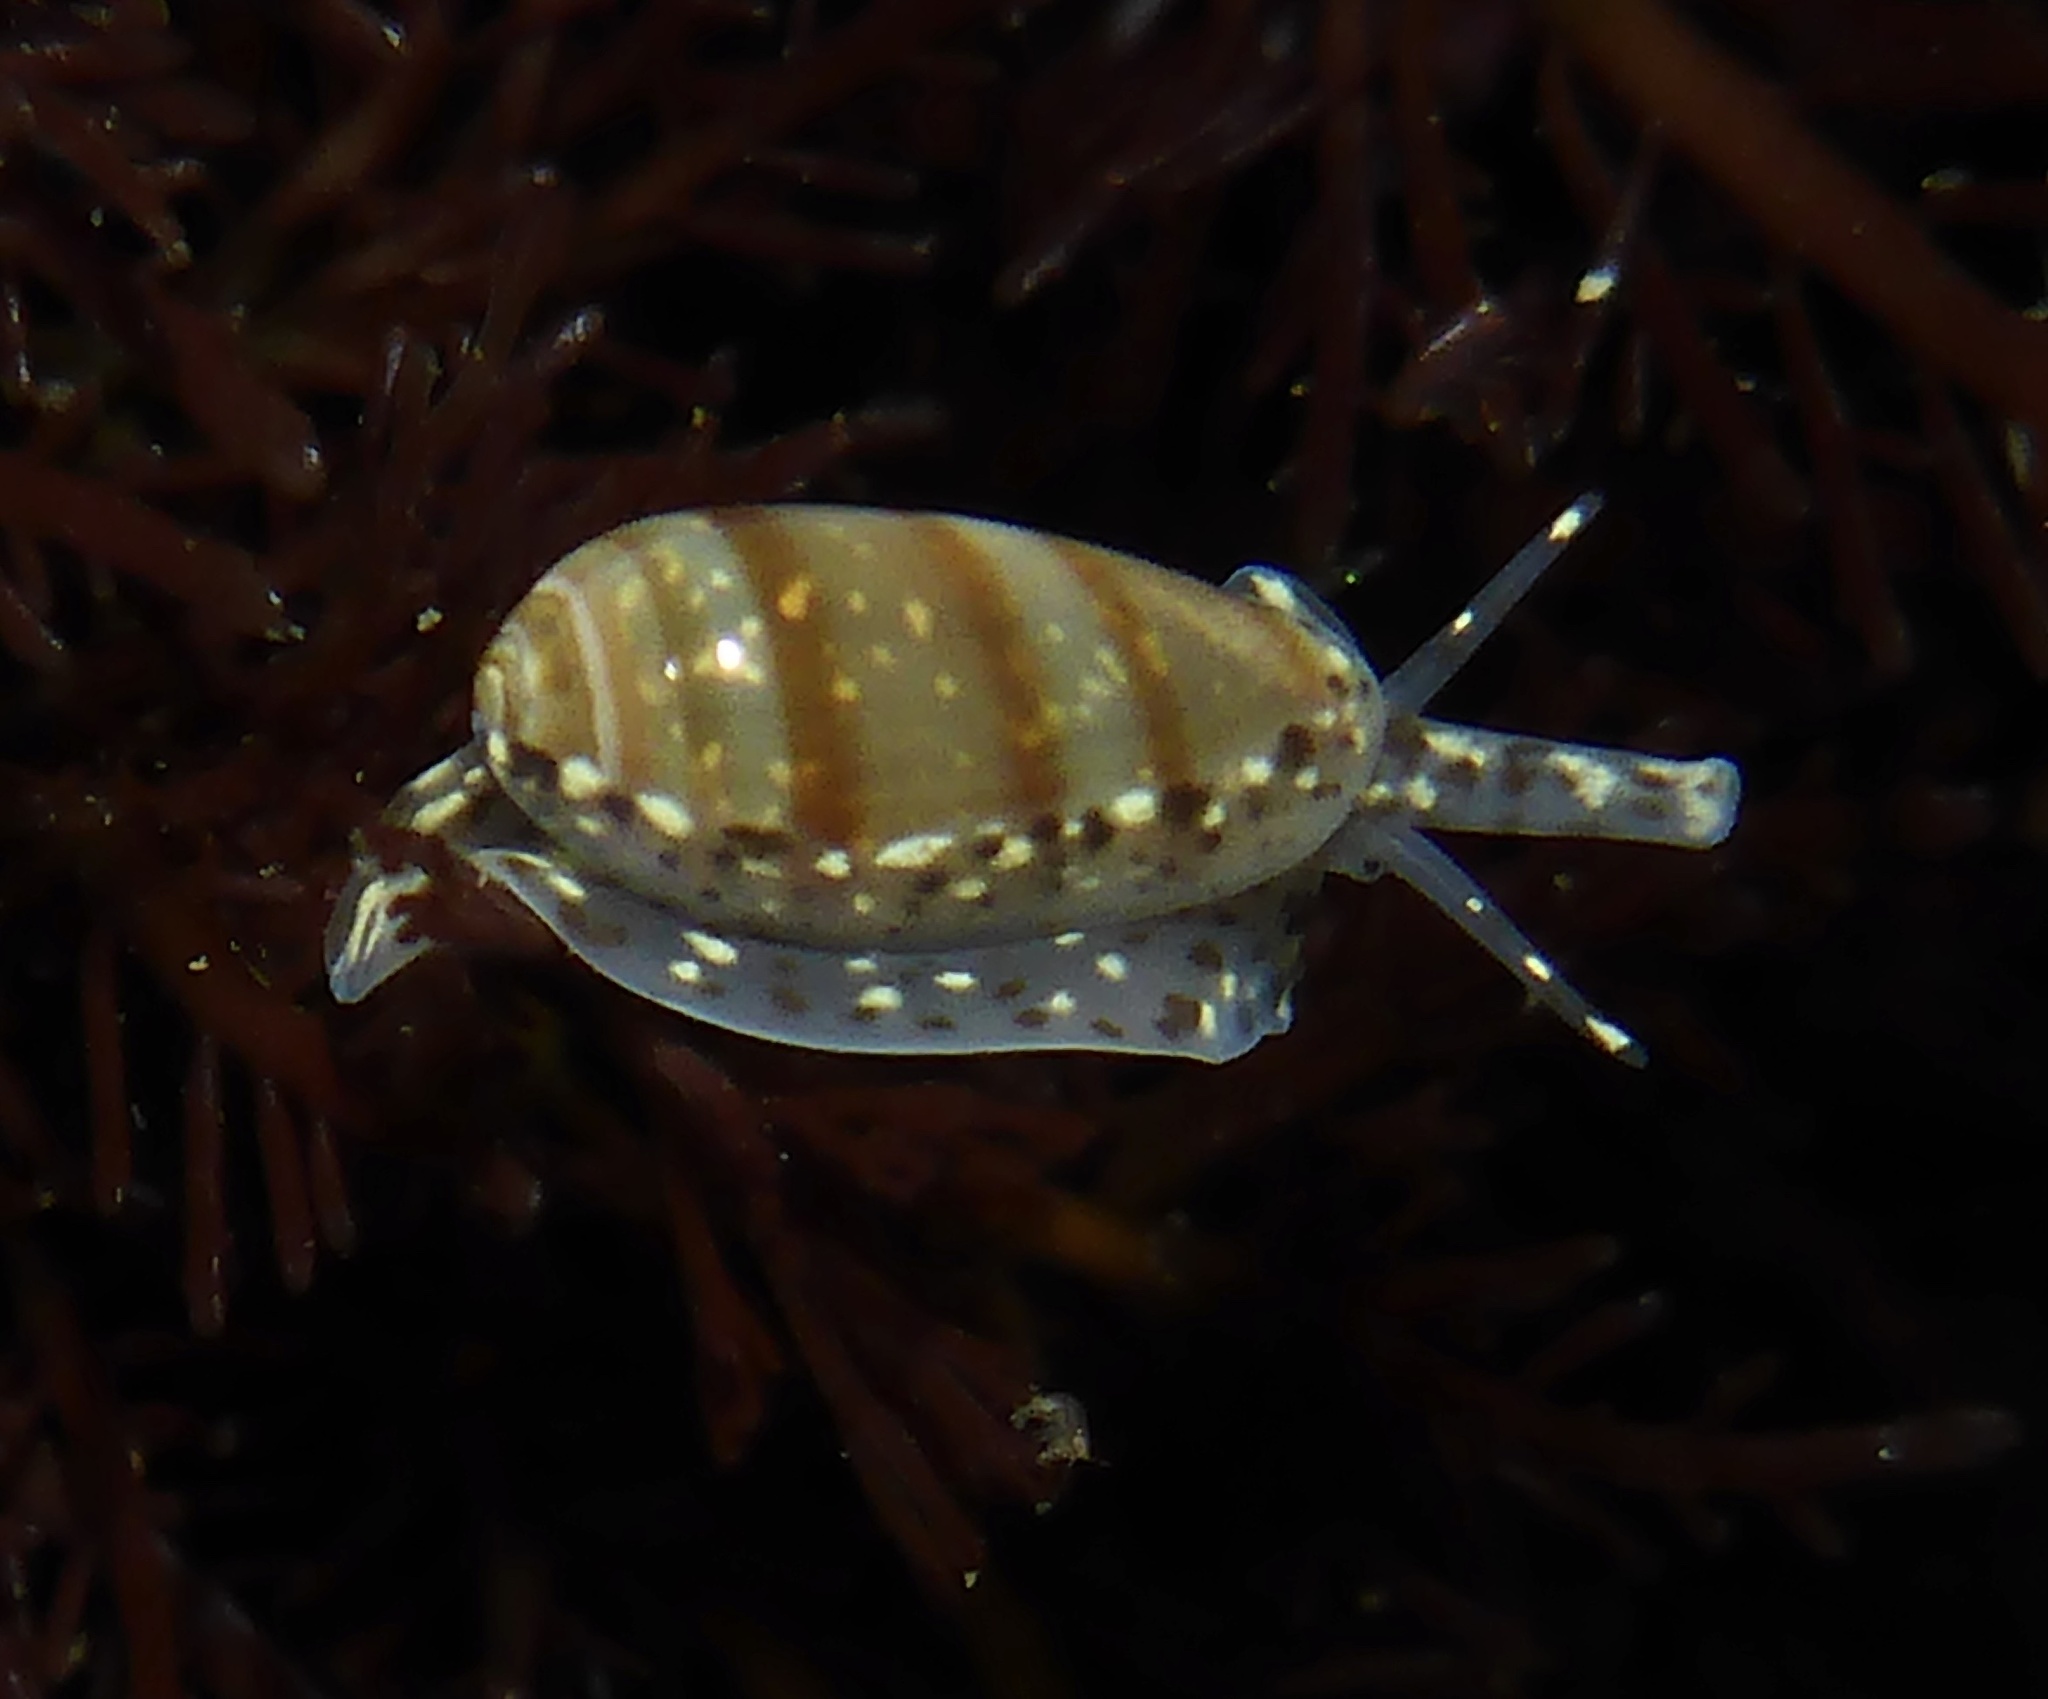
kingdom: Animalia
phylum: Mollusca
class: Gastropoda
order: Neogastropoda
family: Marginellidae
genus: Volvarina
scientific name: Volvarina taeniolata
